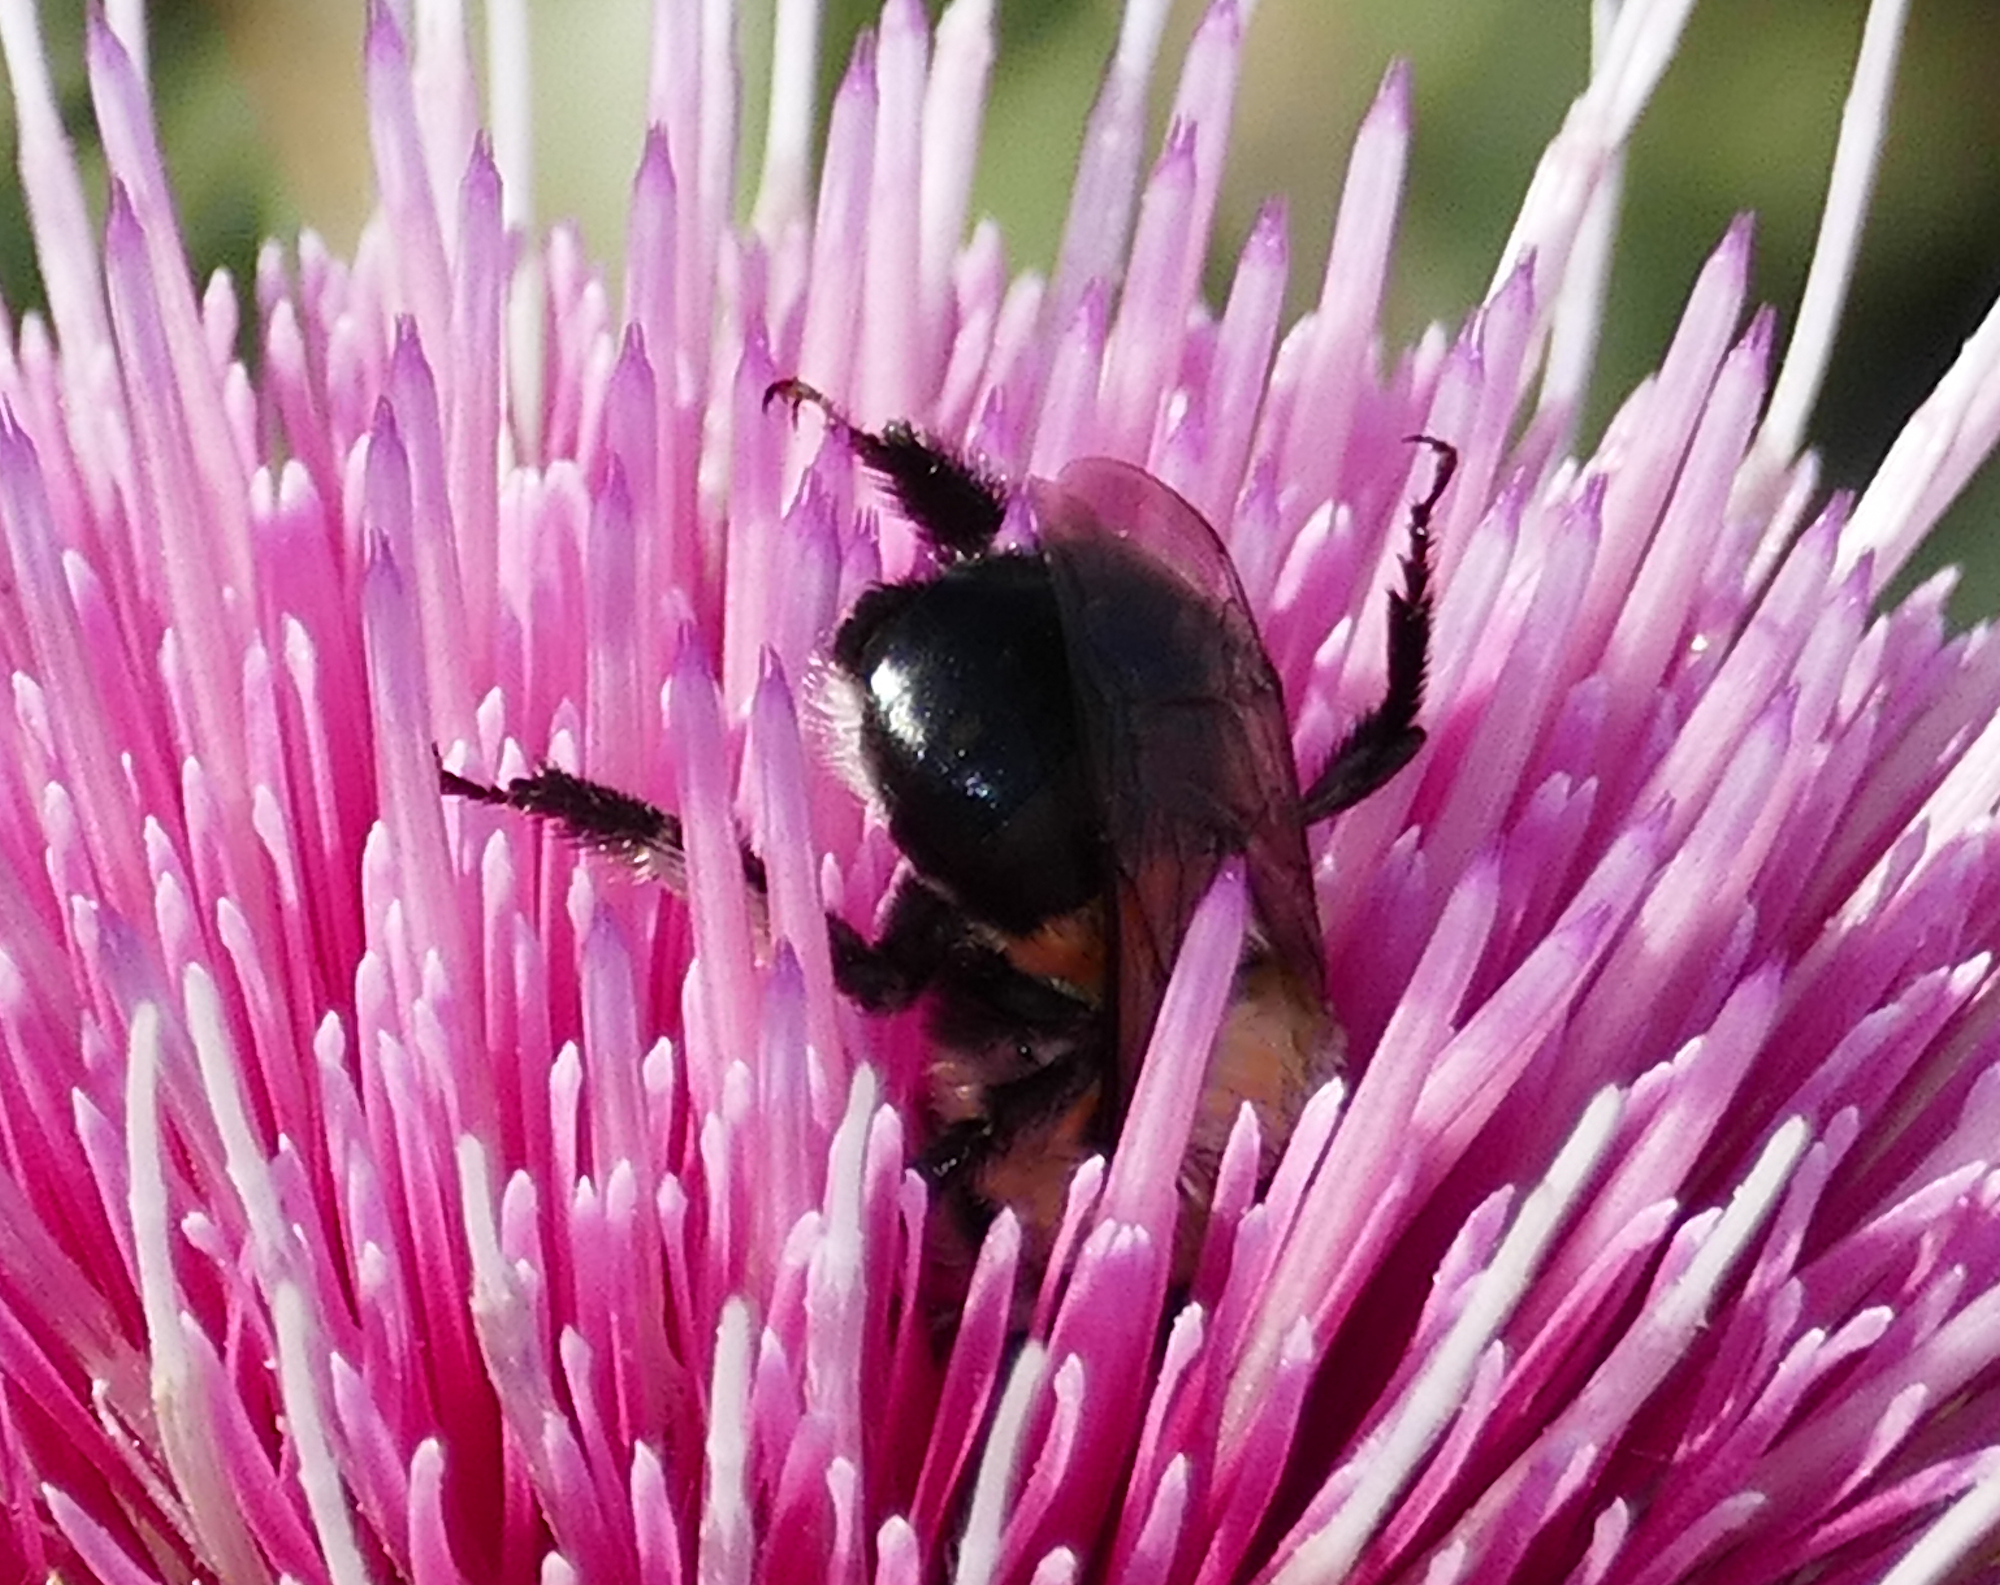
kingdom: Animalia
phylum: Arthropoda
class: Insecta
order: Hymenoptera
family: Apidae
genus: Anthophora
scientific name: Anthophora montana
